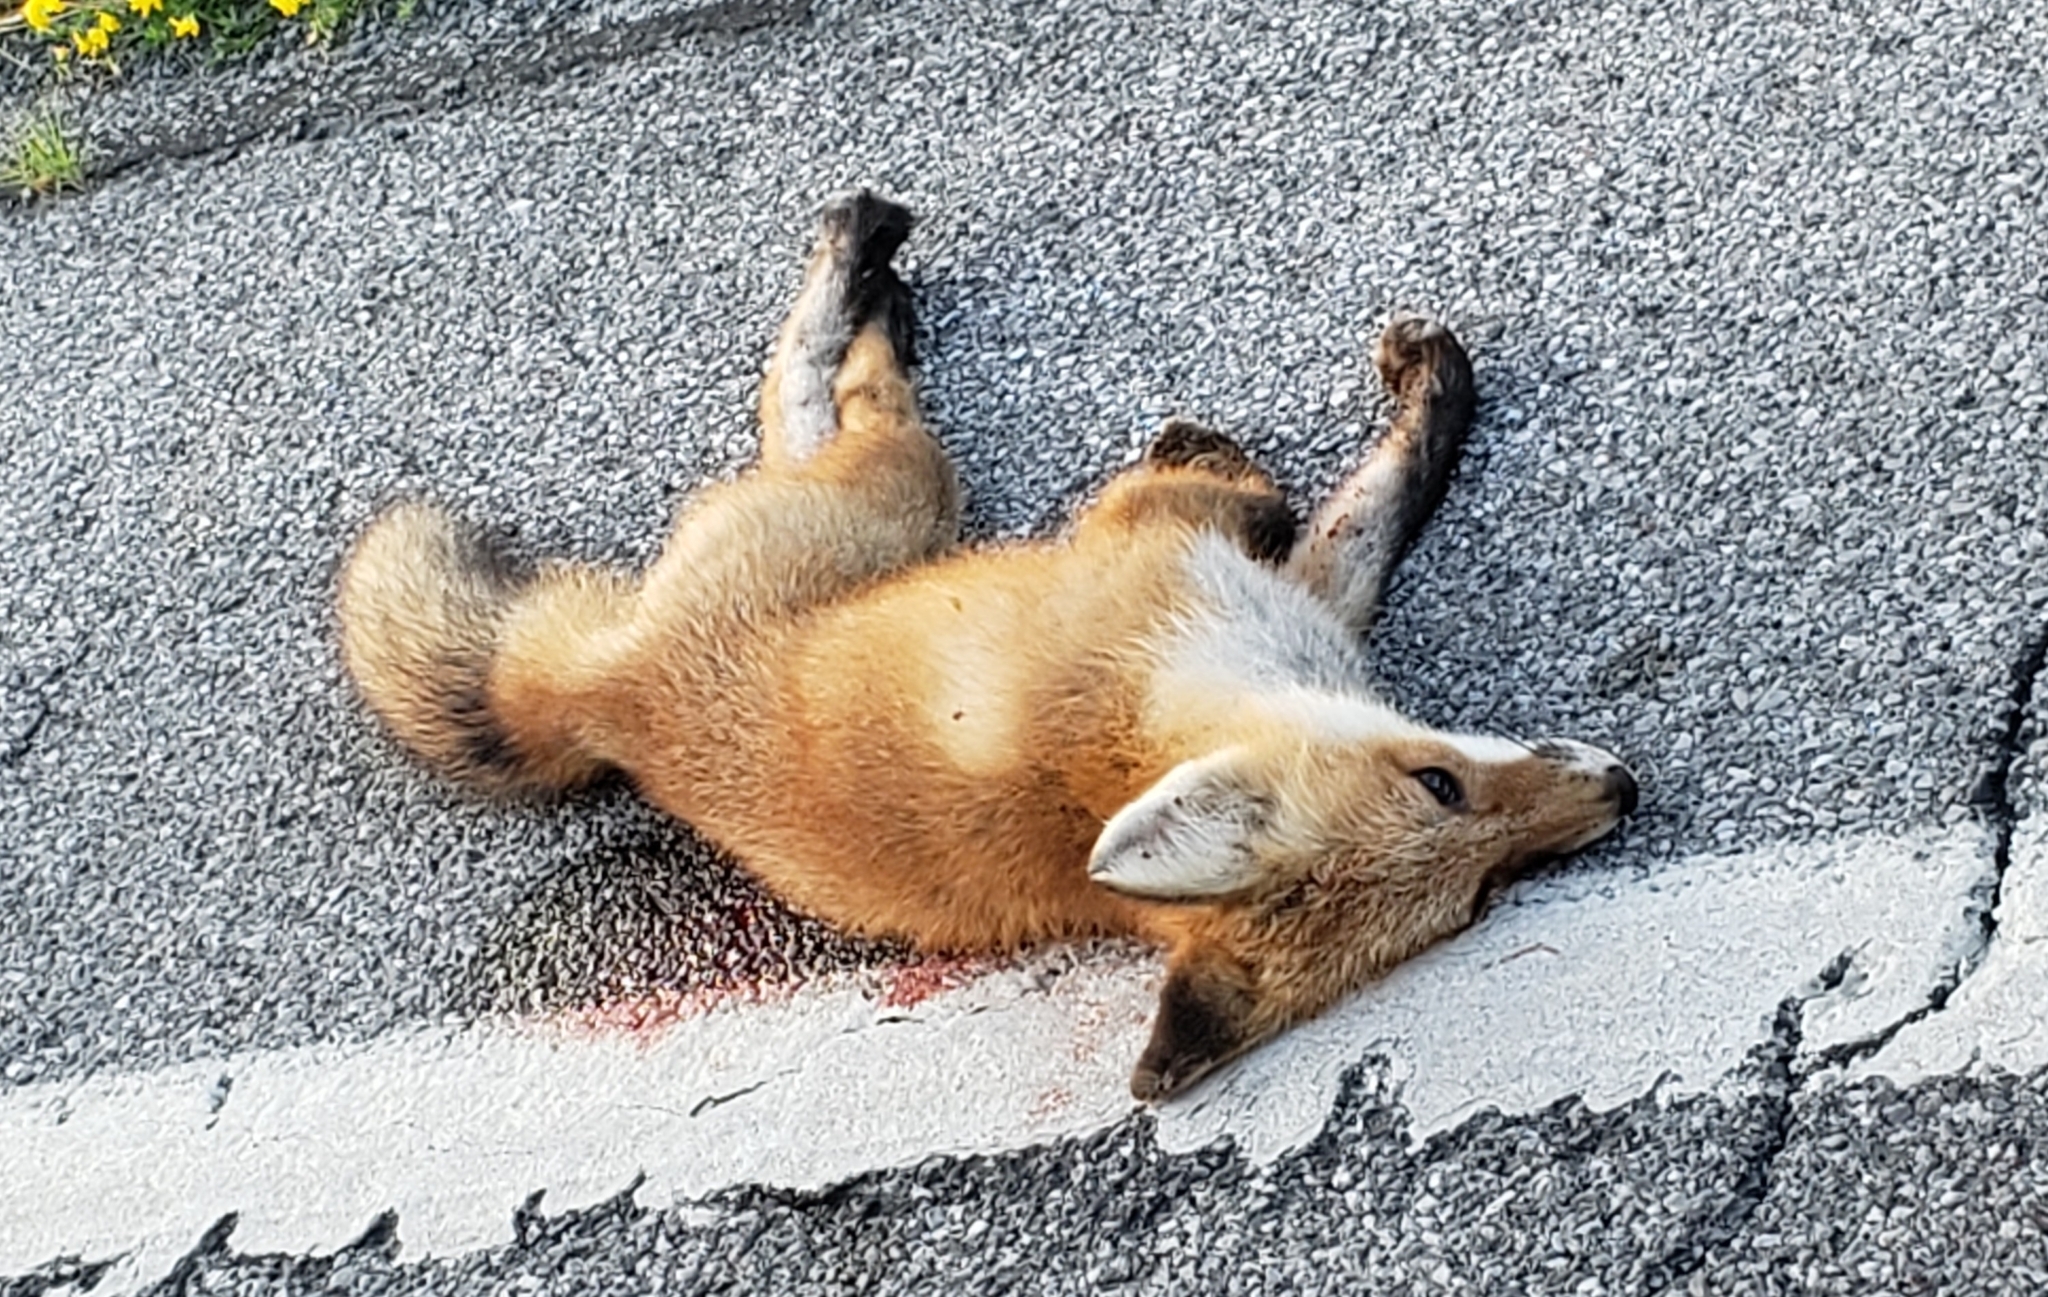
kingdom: Animalia
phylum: Chordata
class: Mammalia
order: Carnivora
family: Canidae
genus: Vulpes
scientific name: Vulpes vulpes
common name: Red fox
